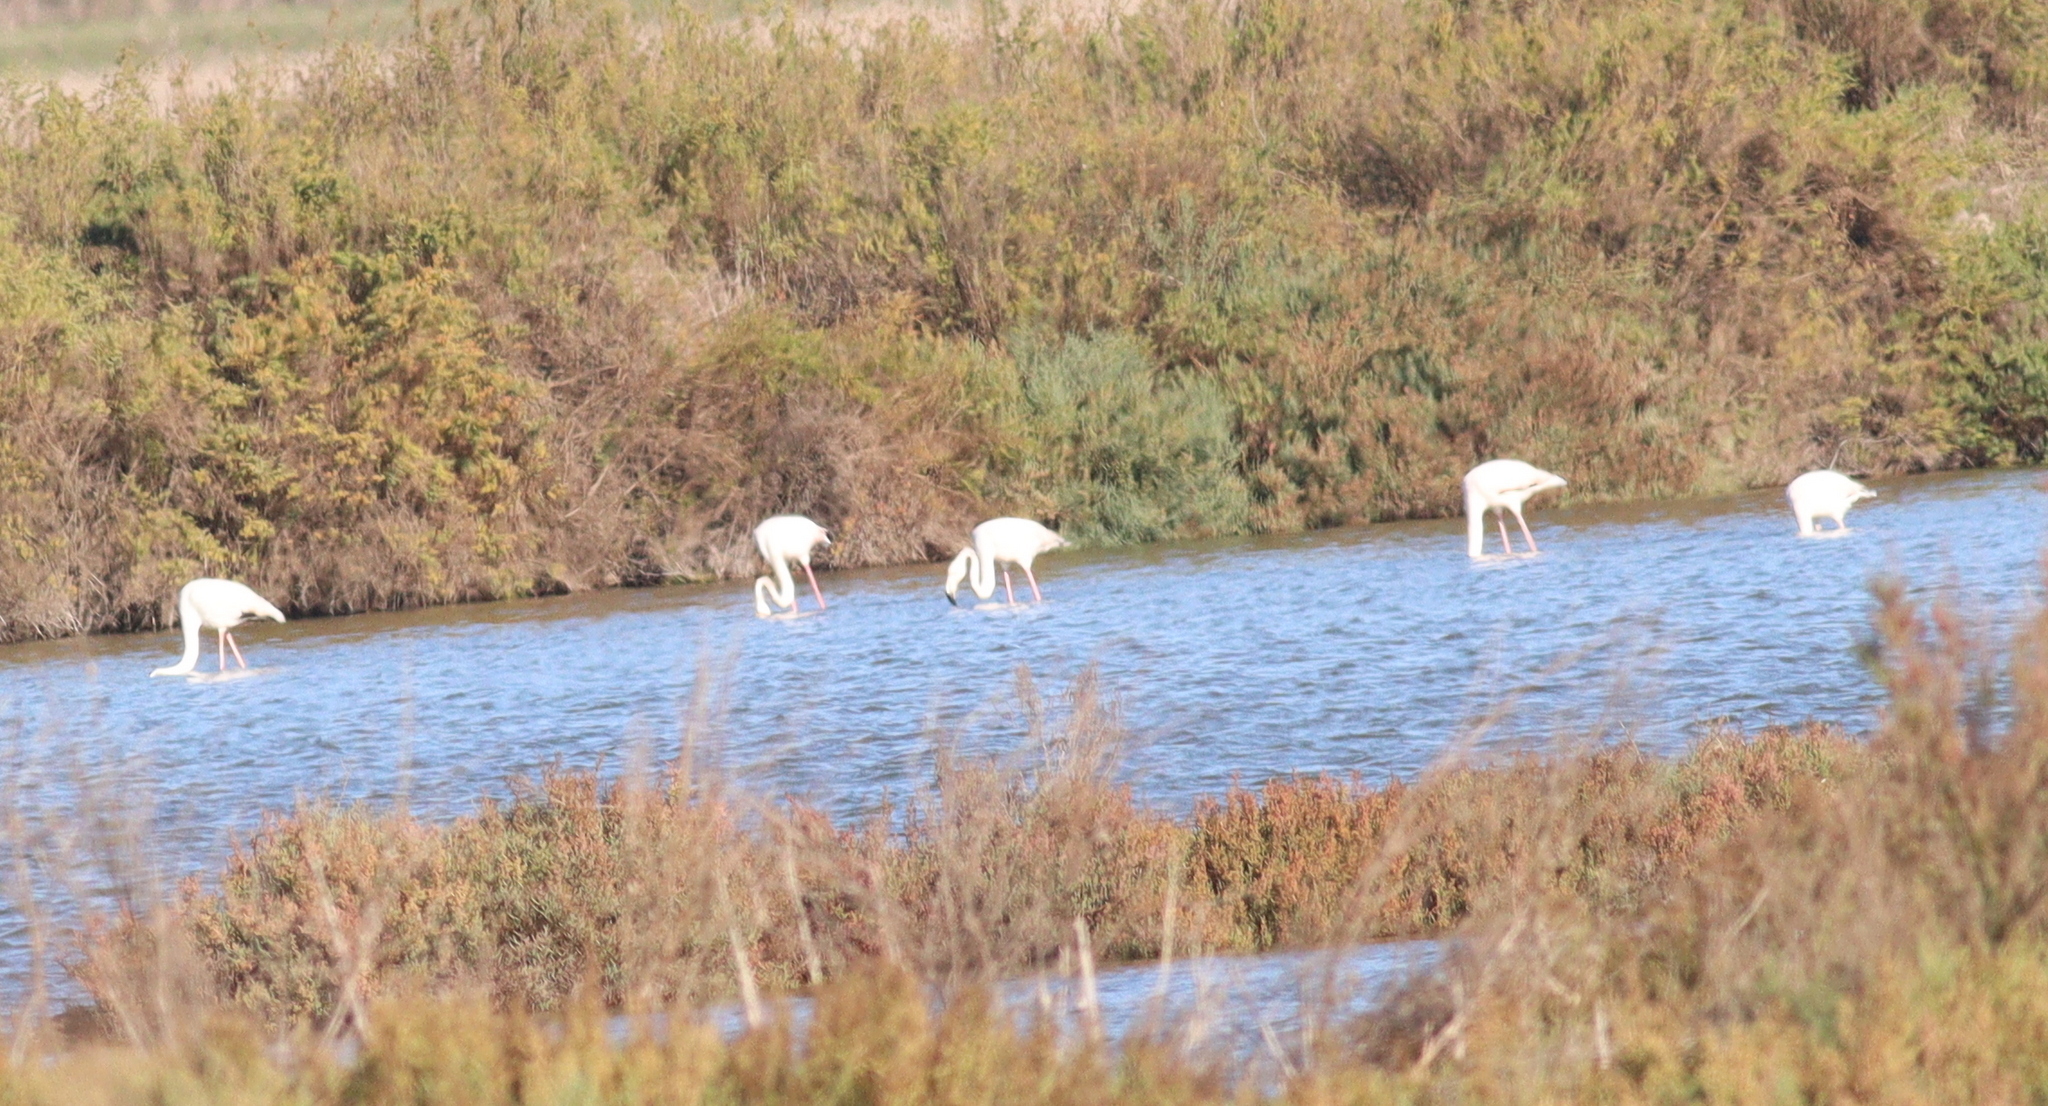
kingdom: Animalia
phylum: Chordata
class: Aves
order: Phoenicopteriformes
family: Phoenicopteridae
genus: Phoenicopterus
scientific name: Phoenicopterus roseus
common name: Greater flamingo
